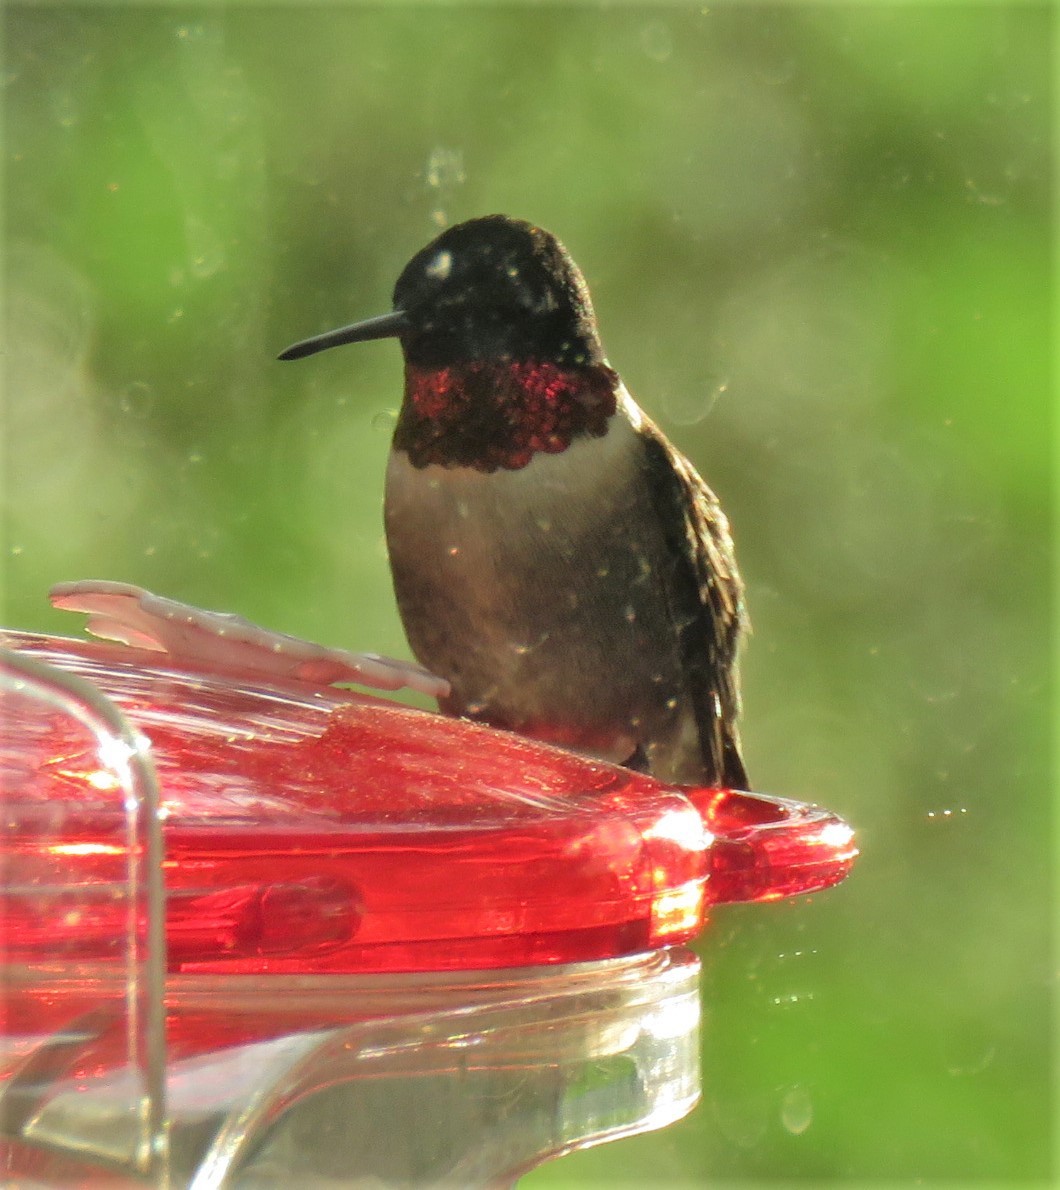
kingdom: Animalia
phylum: Chordata
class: Aves
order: Apodiformes
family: Trochilidae
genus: Archilochus
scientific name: Archilochus colubris
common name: Ruby-throated hummingbird
